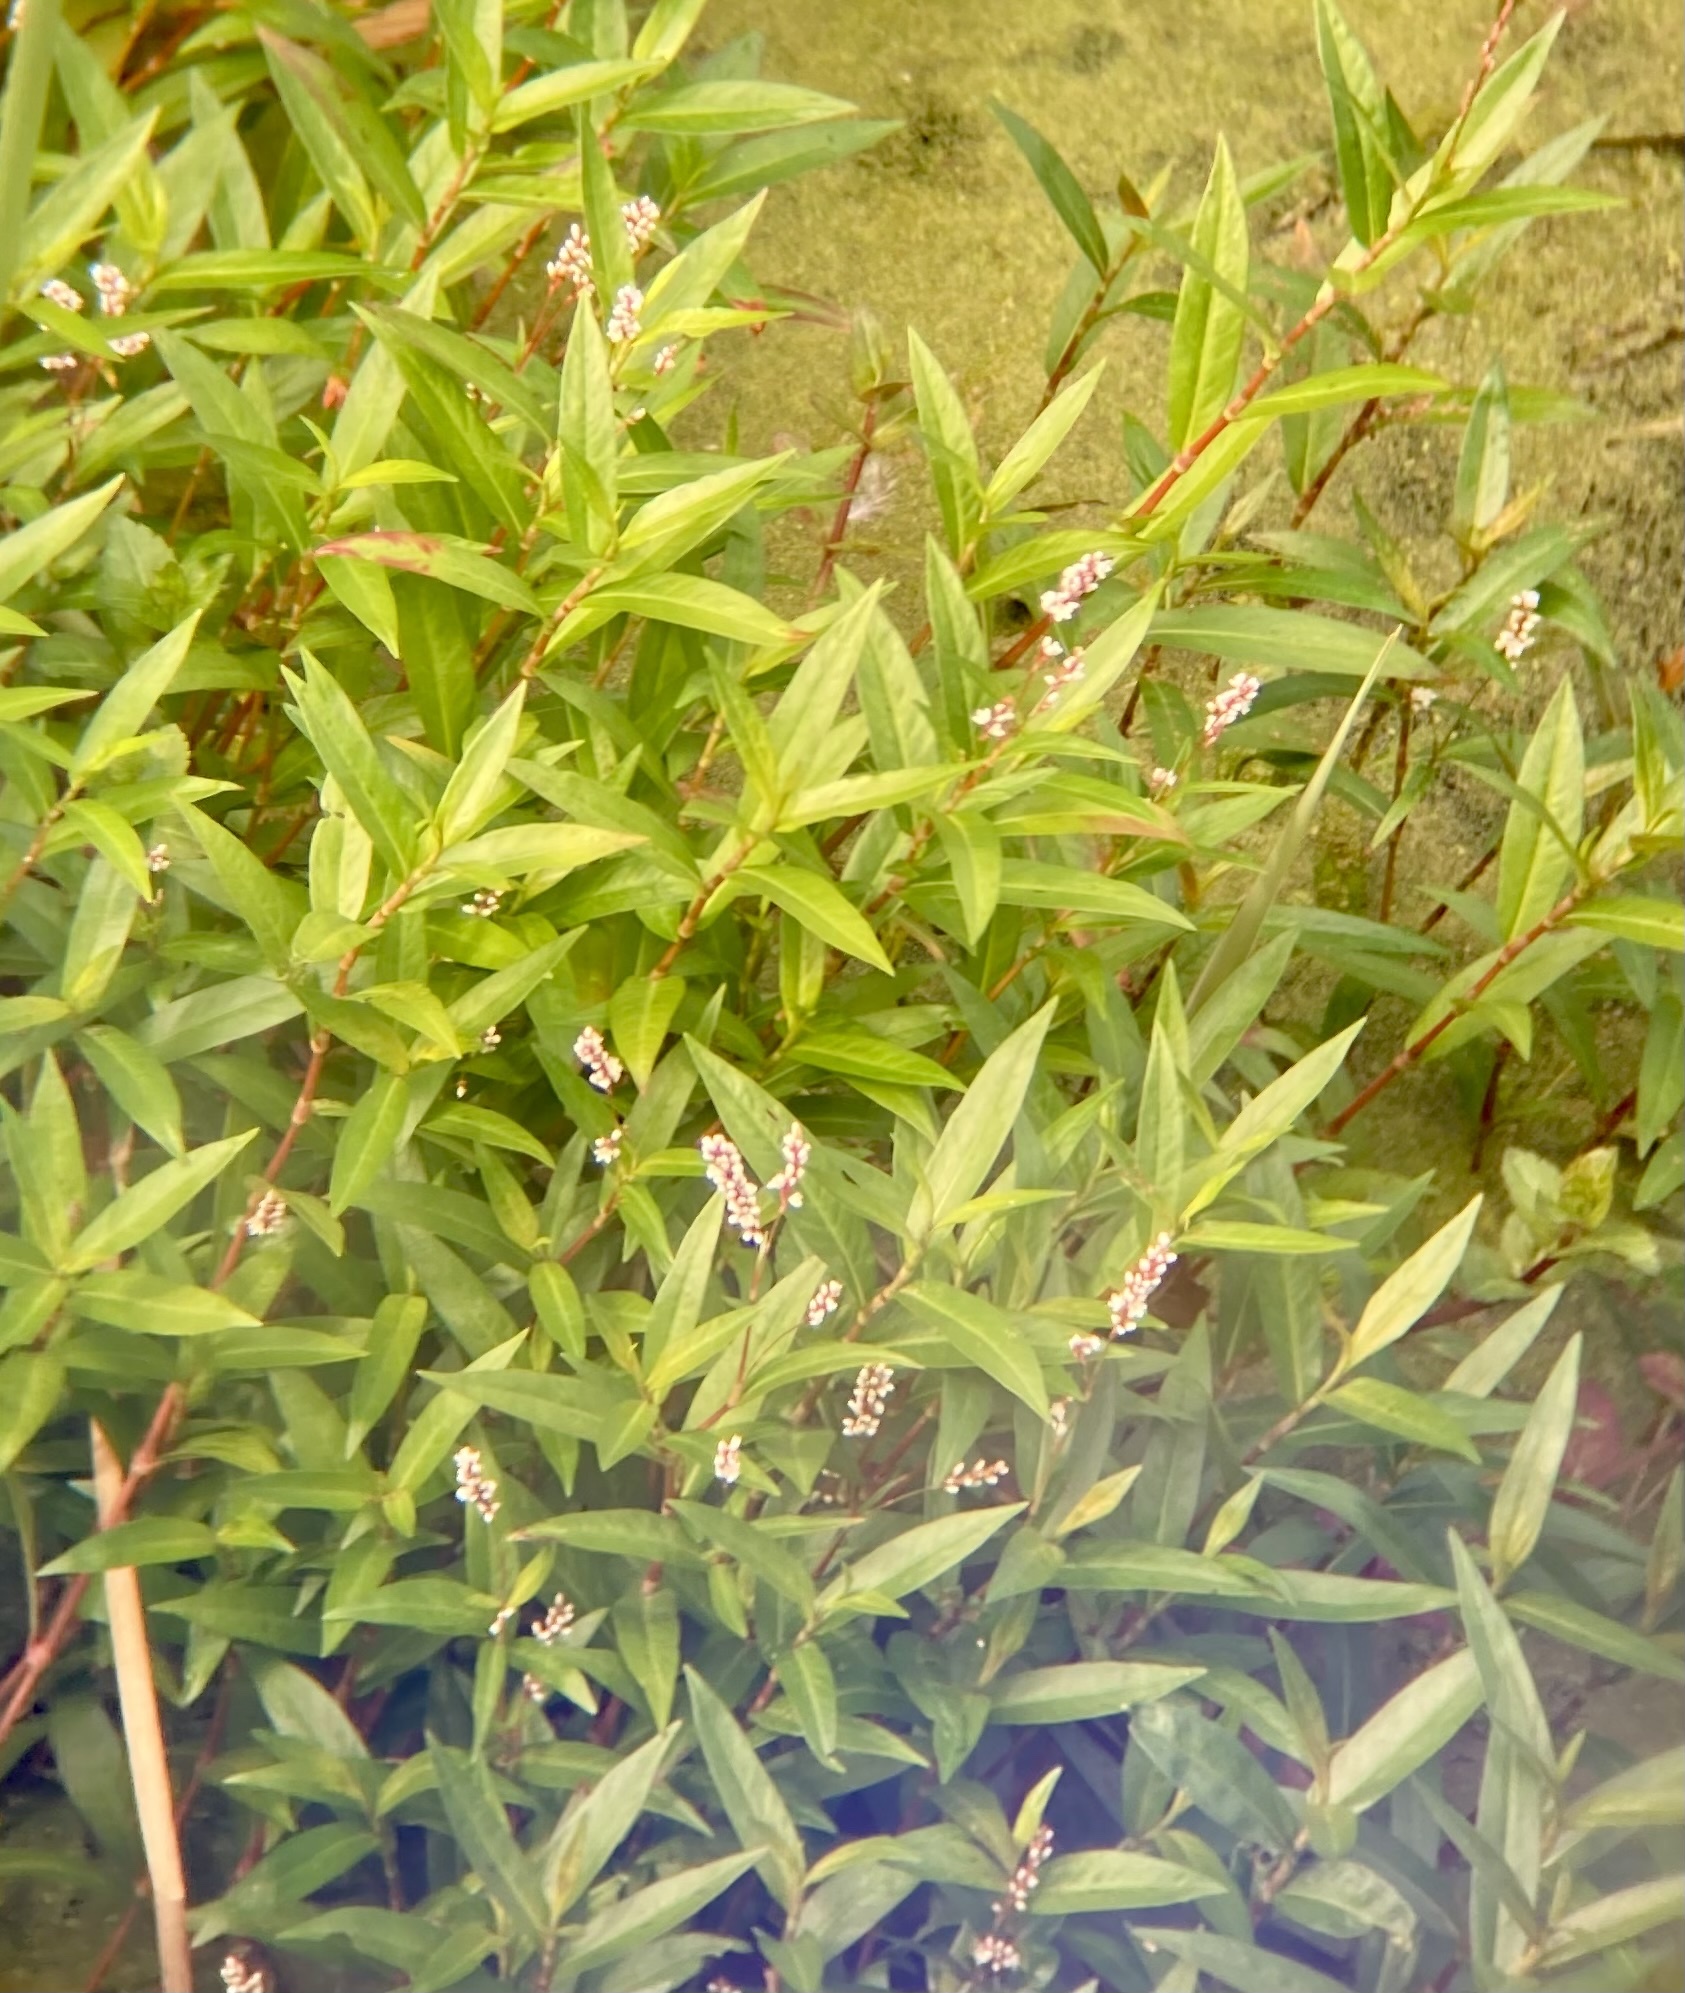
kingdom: Plantae
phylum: Tracheophyta
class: Magnoliopsida
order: Caryophyllales
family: Polygonaceae
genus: Persicaria
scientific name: Persicaria hydropiperoides
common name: Swamp smartweed
